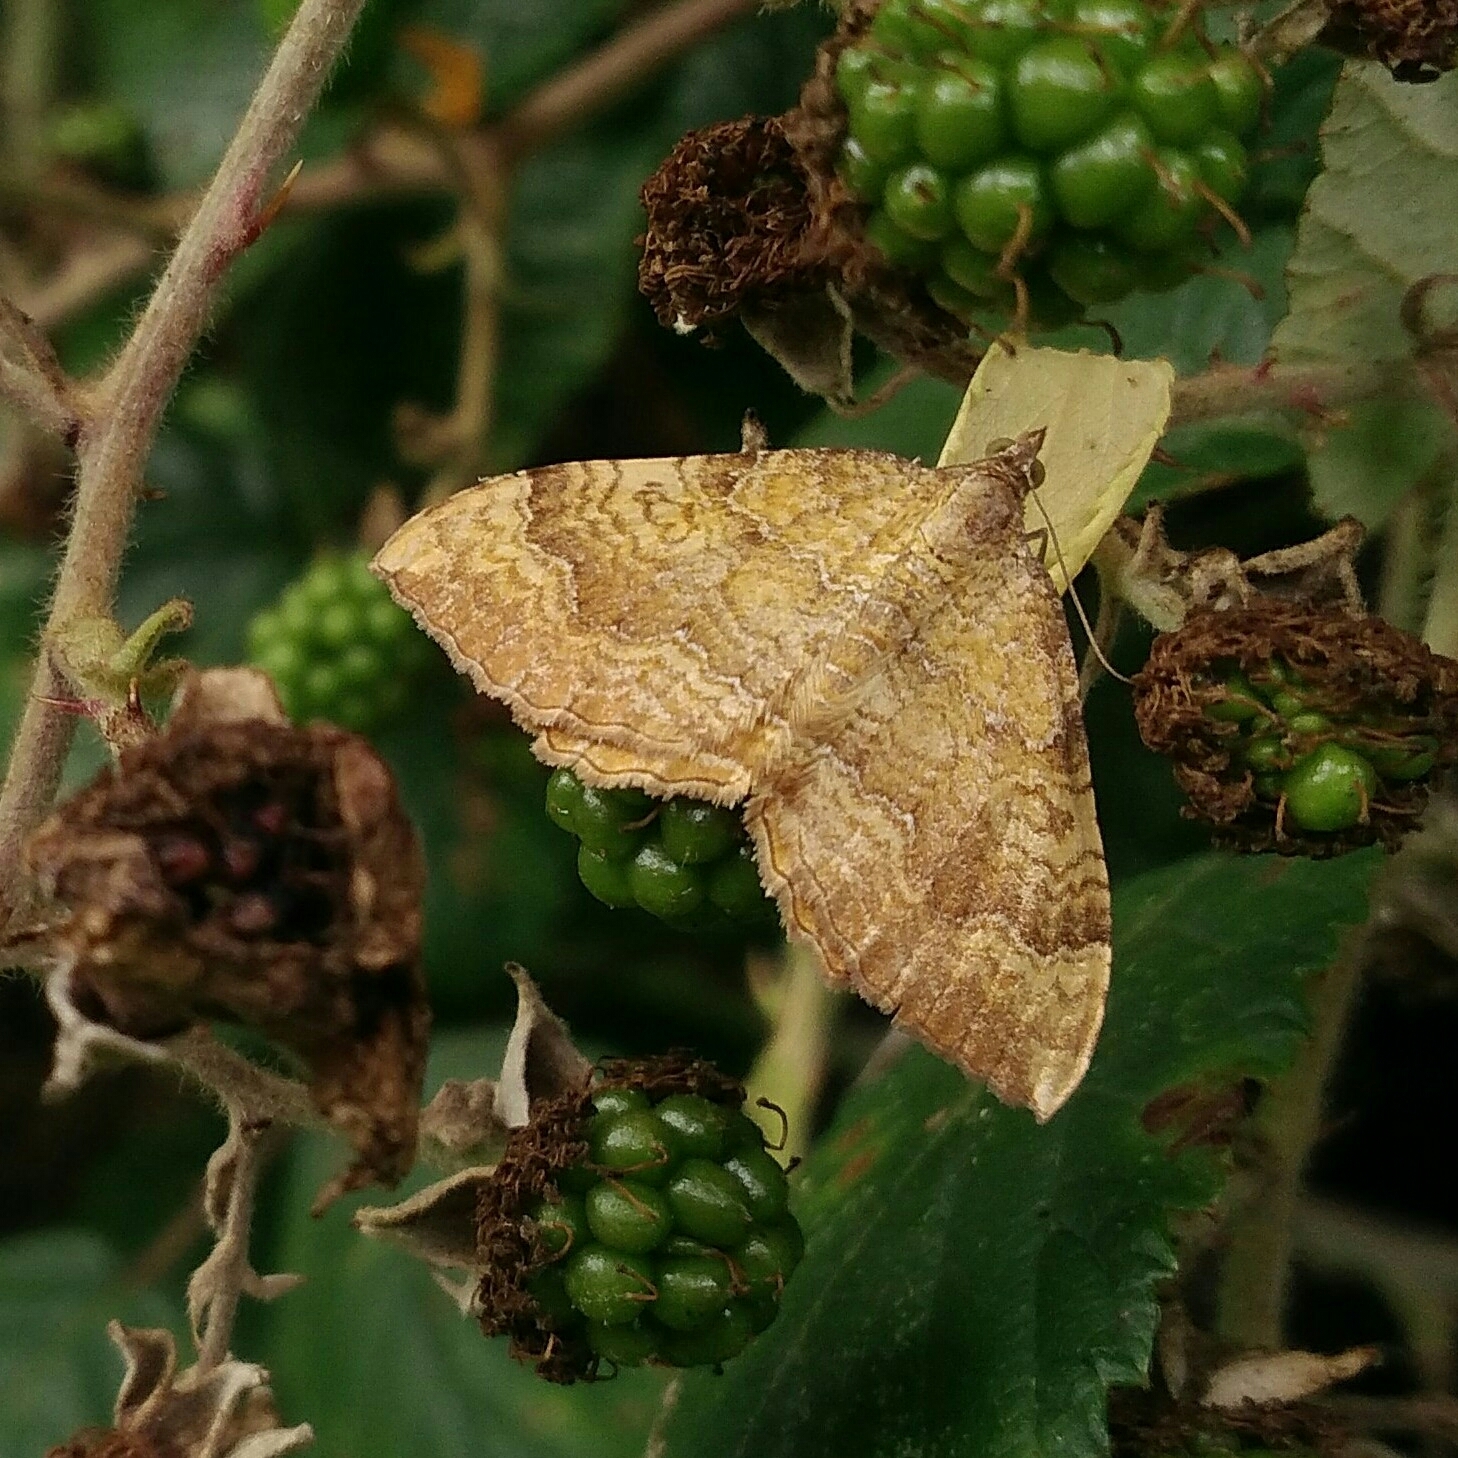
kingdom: Animalia
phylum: Arthropoda
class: Insecta
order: Lepidoptera
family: Geometridae
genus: Camptogramma
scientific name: Camptogramma bilineata
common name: Yellow shell
